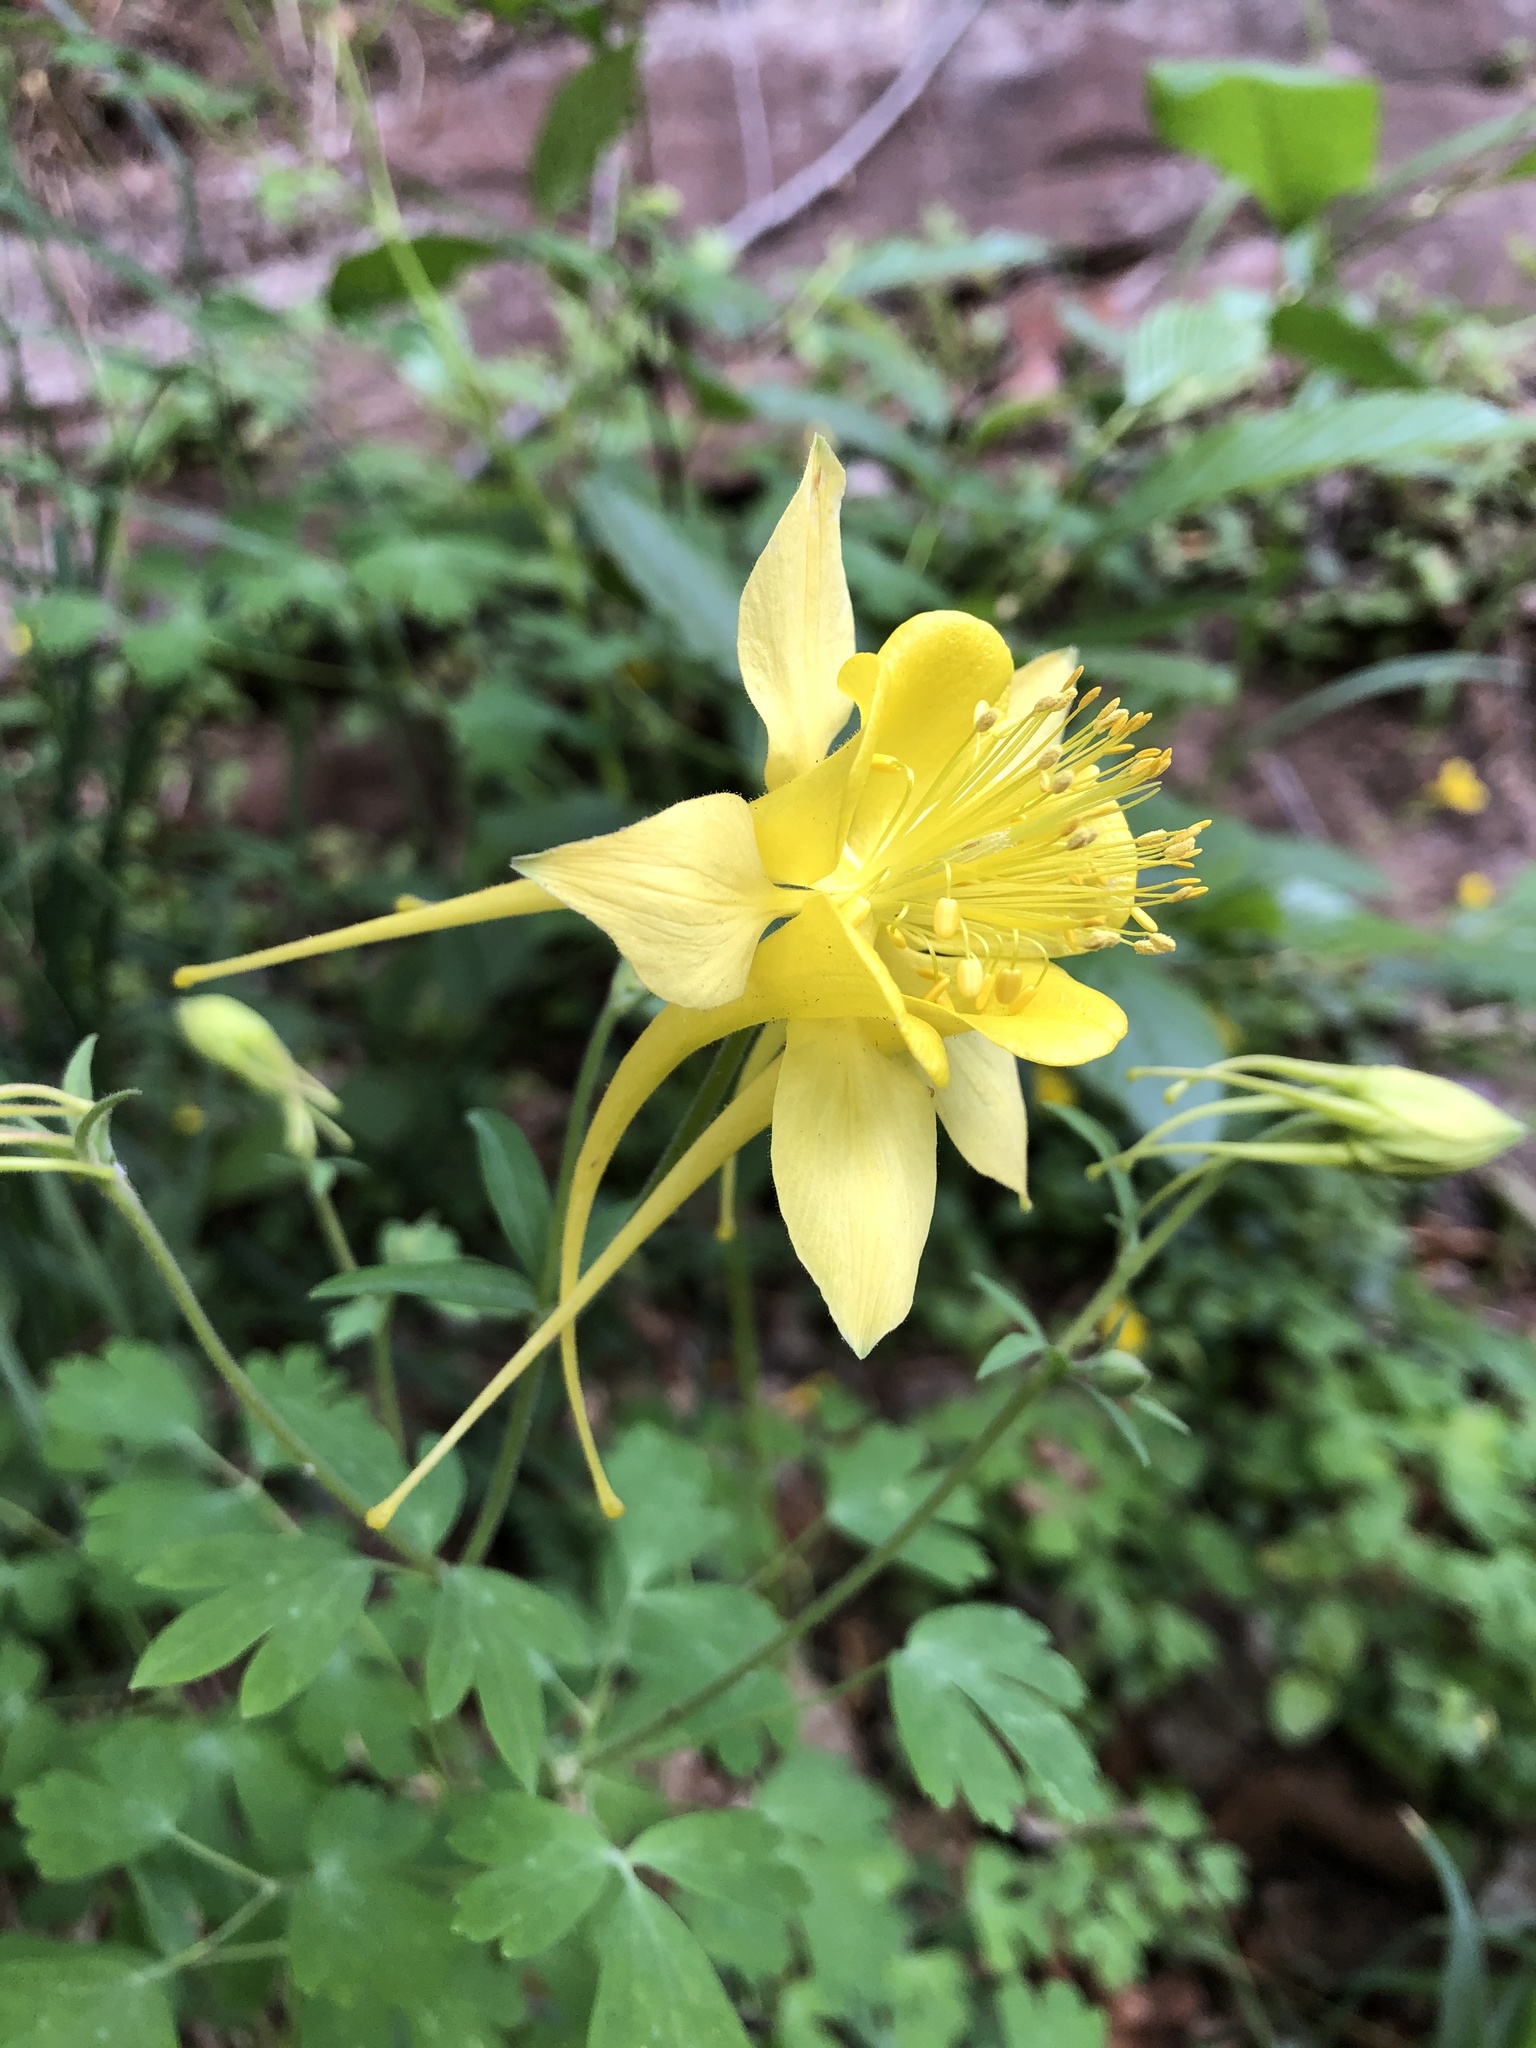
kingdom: Plantae
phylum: Tracheophyta
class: Magnoliopsida
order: Ranunculales
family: Ranunculaceae
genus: Aquilegia
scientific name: Aquilegia chrysantha
